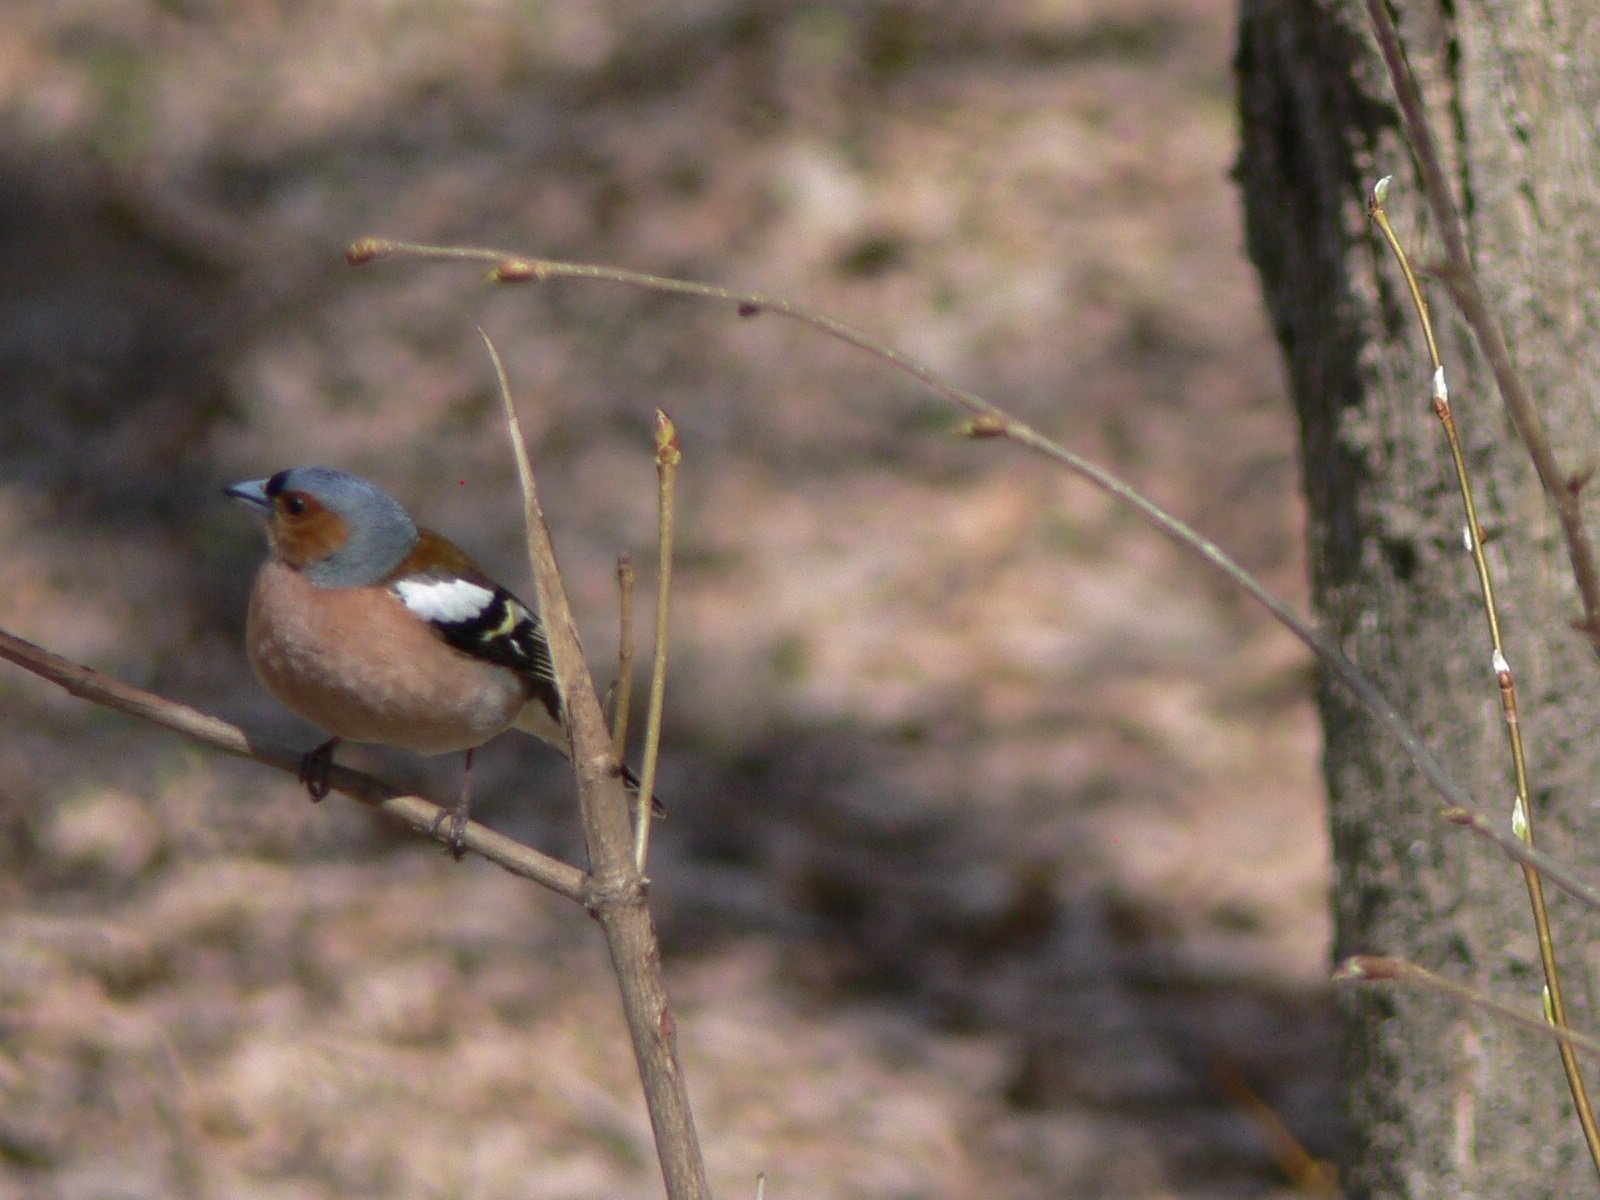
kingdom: Animalia
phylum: Chordata
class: Aves
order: Passeriformes
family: Fringillidae
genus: Fringilla
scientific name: Fringilla coelebs
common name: Common chaffinch
